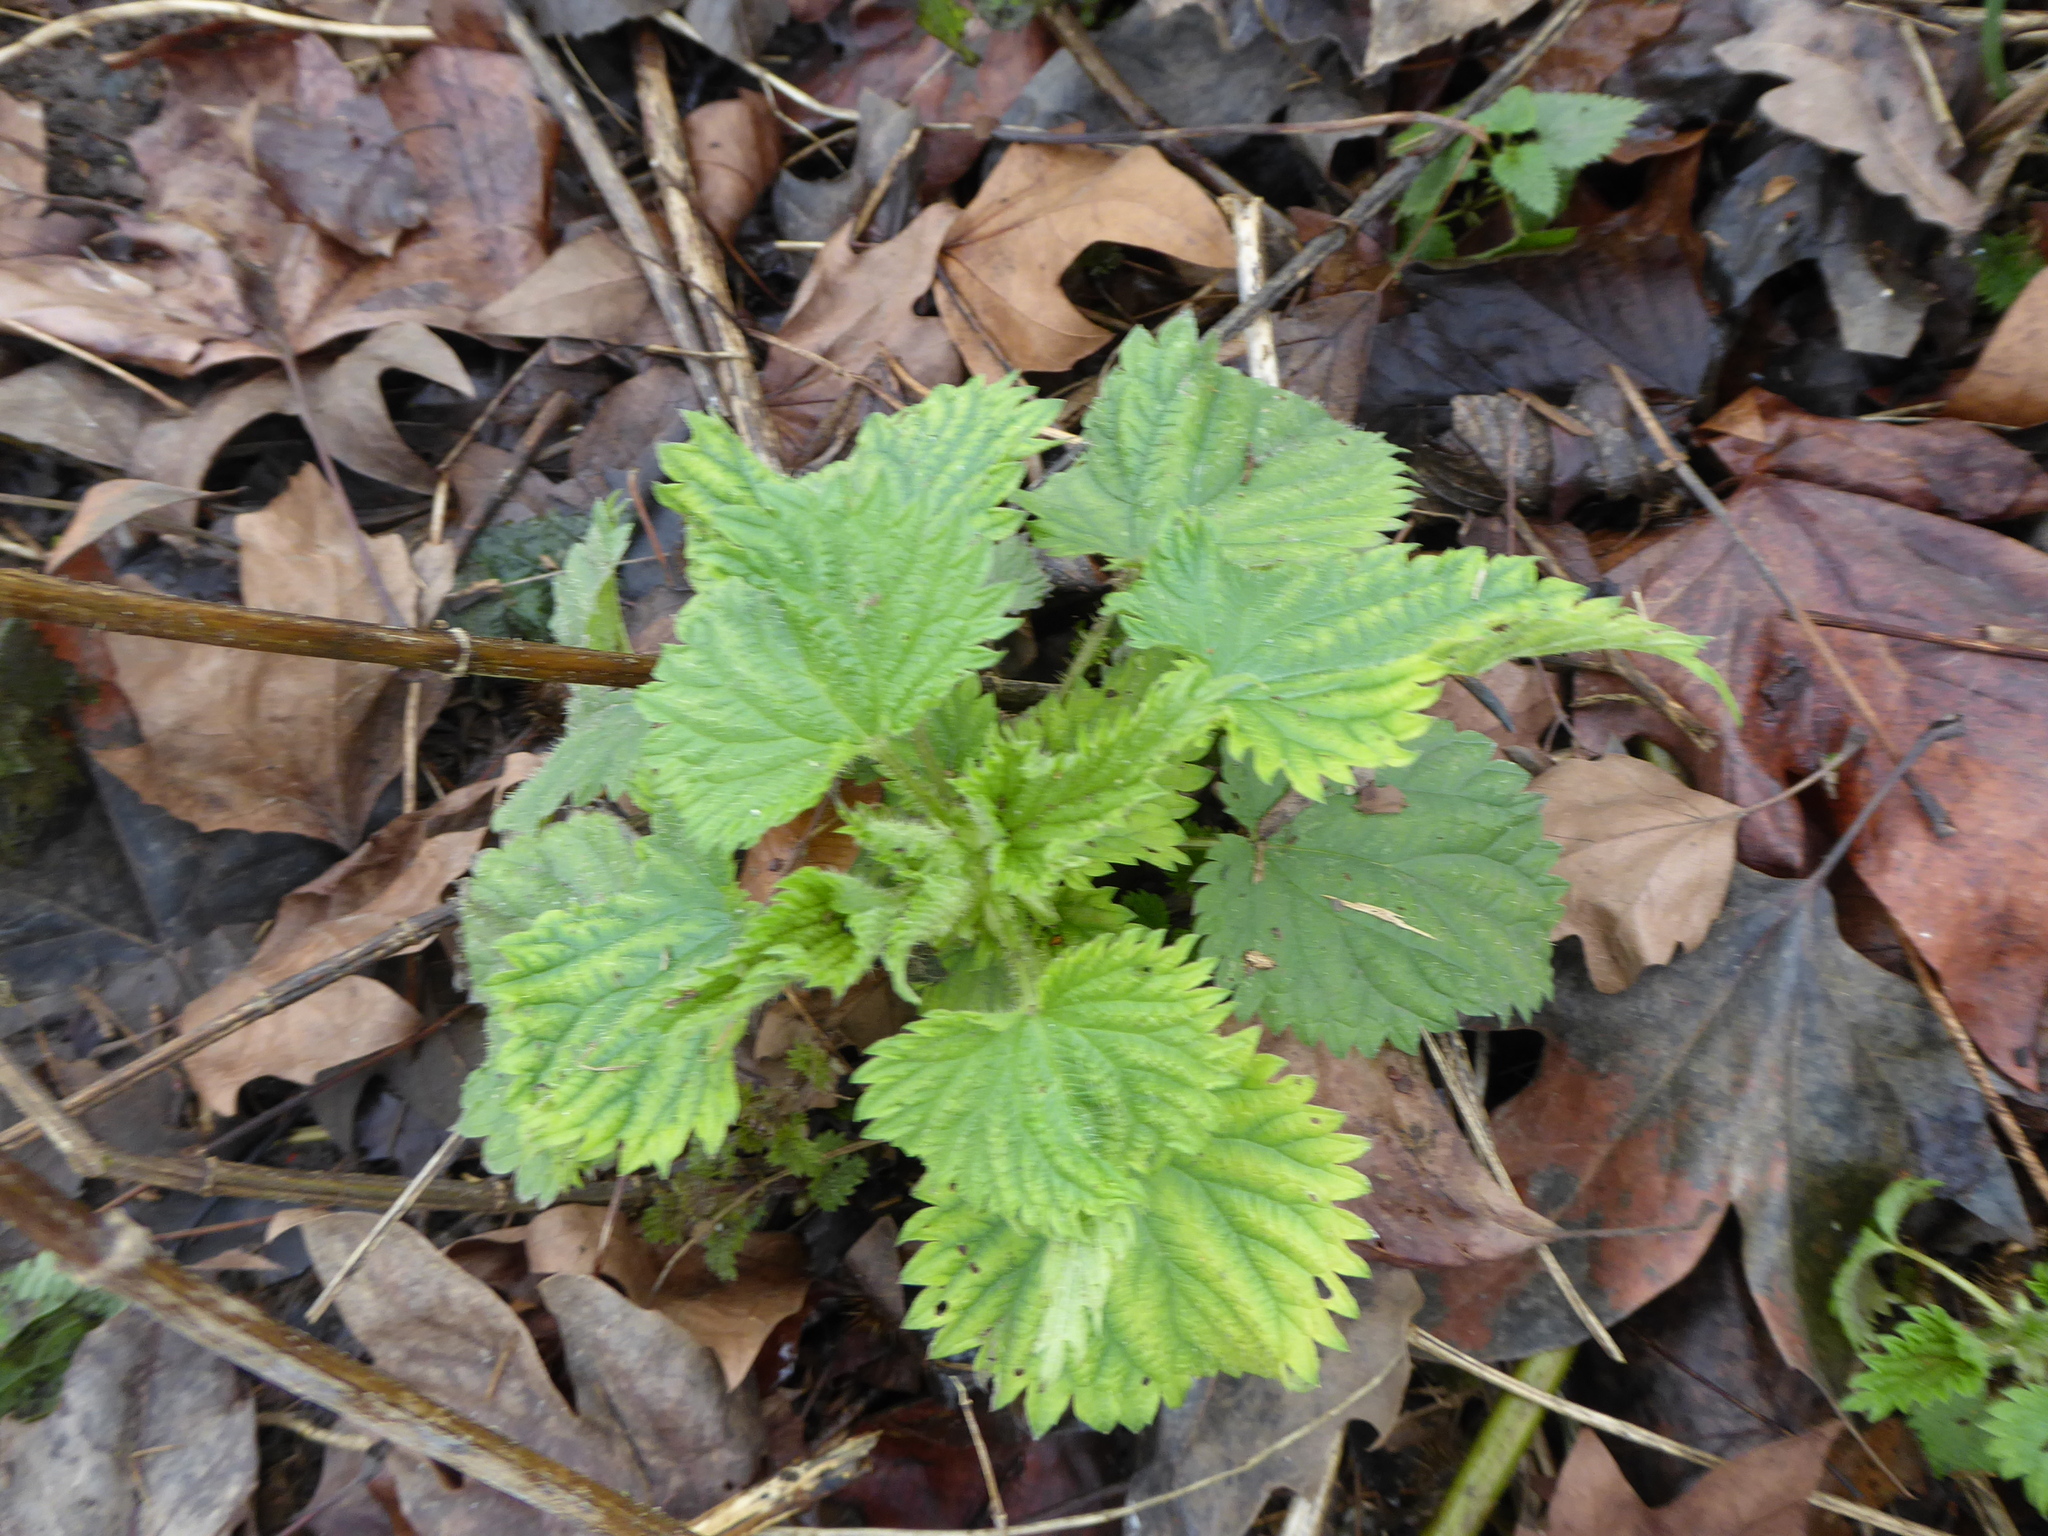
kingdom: Plantae
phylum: Tracheophyta
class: Magnoliopsida
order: Rosales
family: Urticaceae
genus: Urtica
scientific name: Urtica dioica
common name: Common nettle
